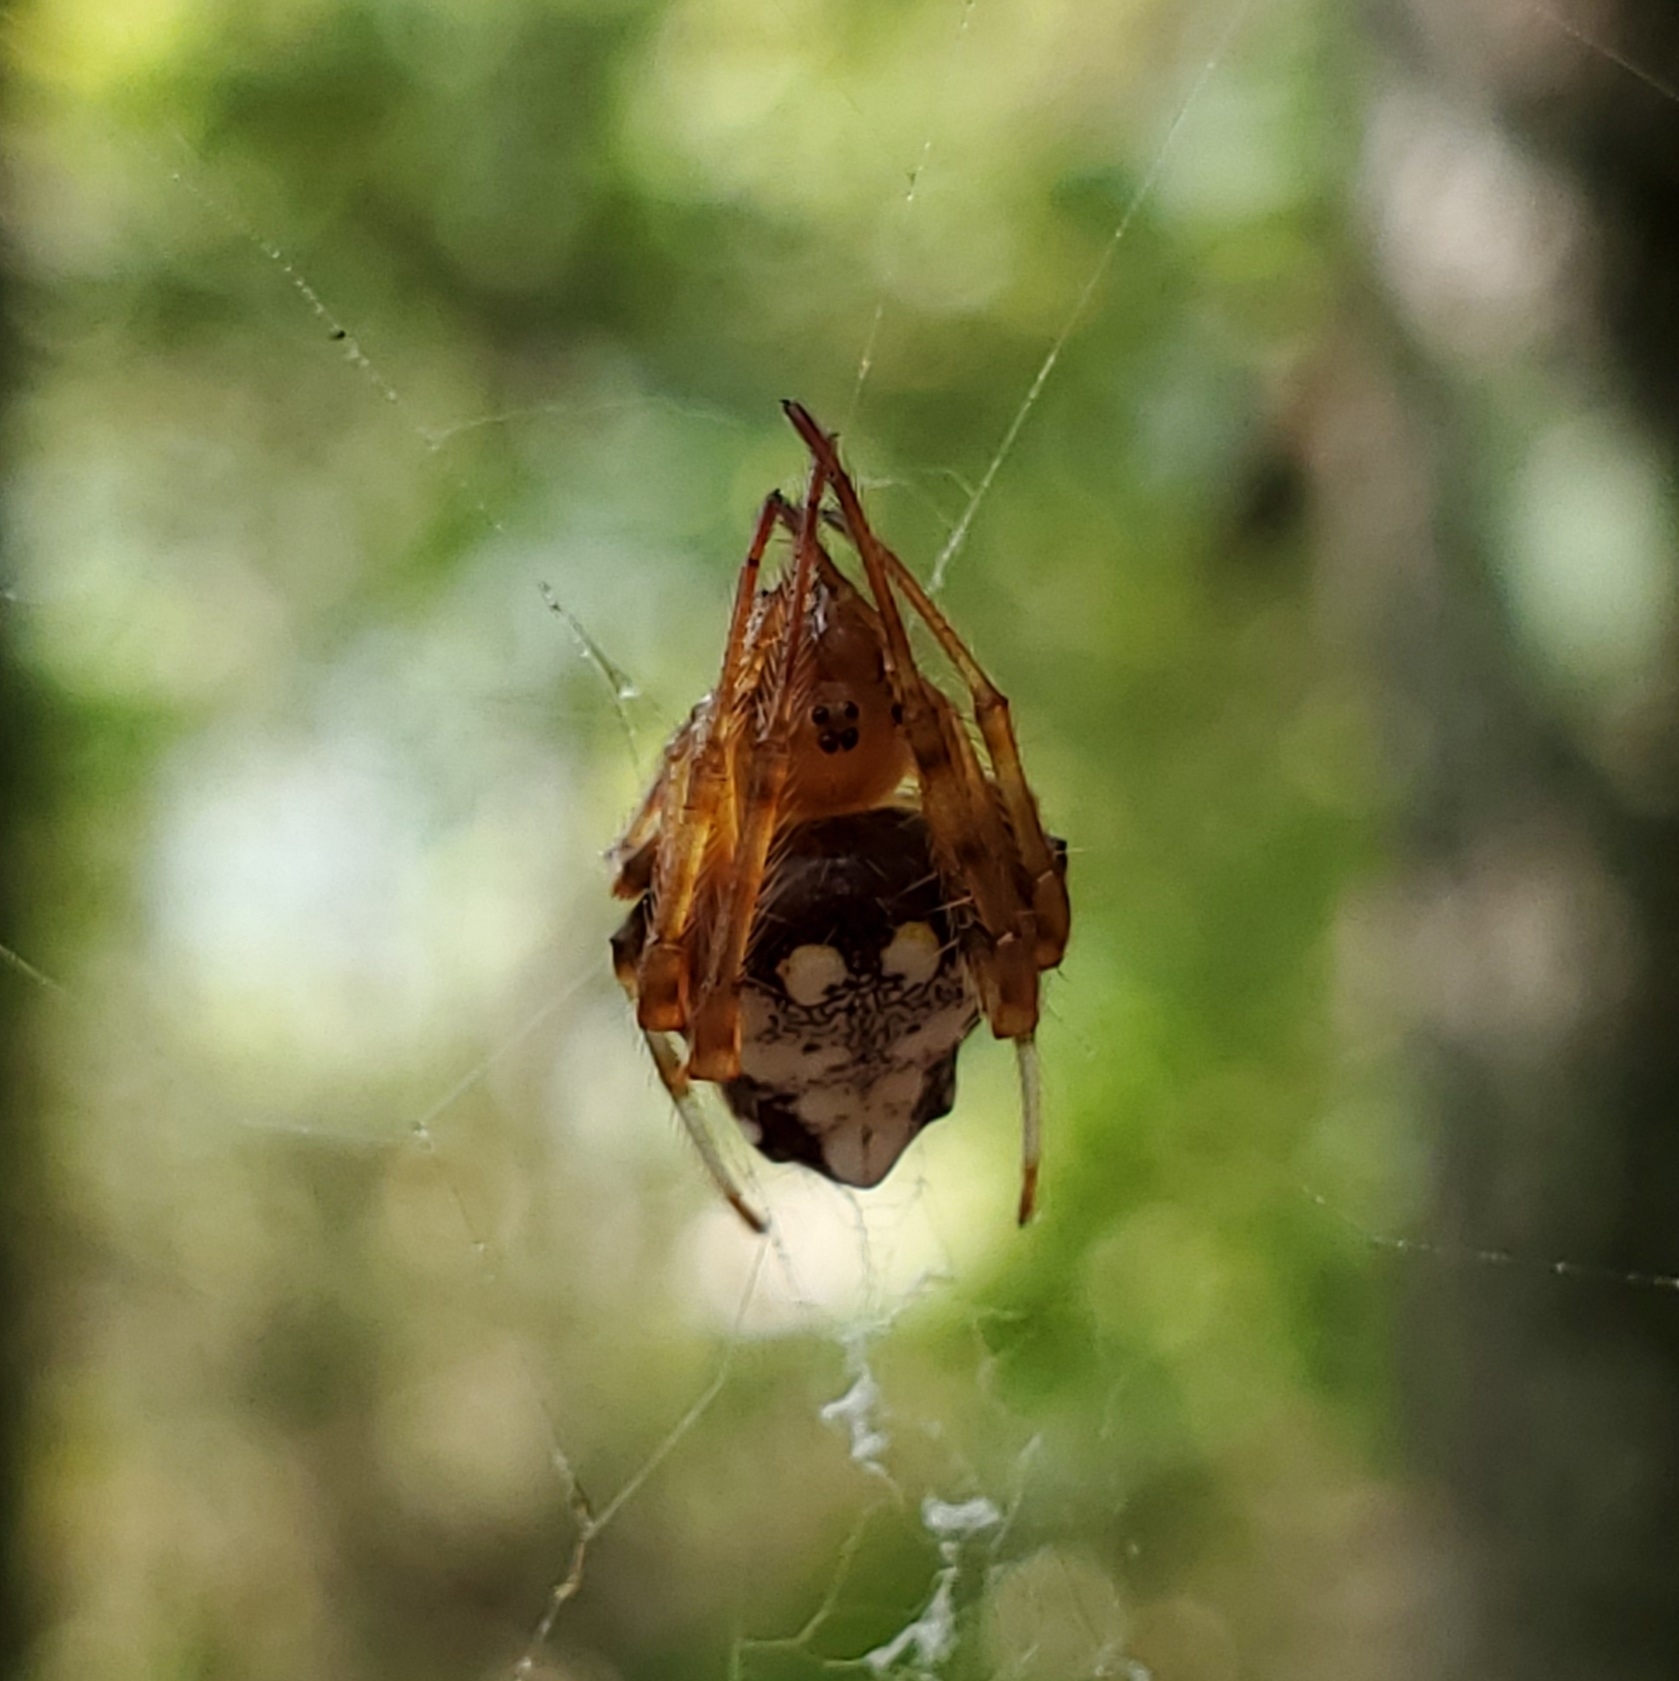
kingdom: Animalia
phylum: Arthropoda
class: Arachnida
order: Araneae
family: Araneidae
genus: Verrucosa
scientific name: Verrucosa arenata
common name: Orb weavers
